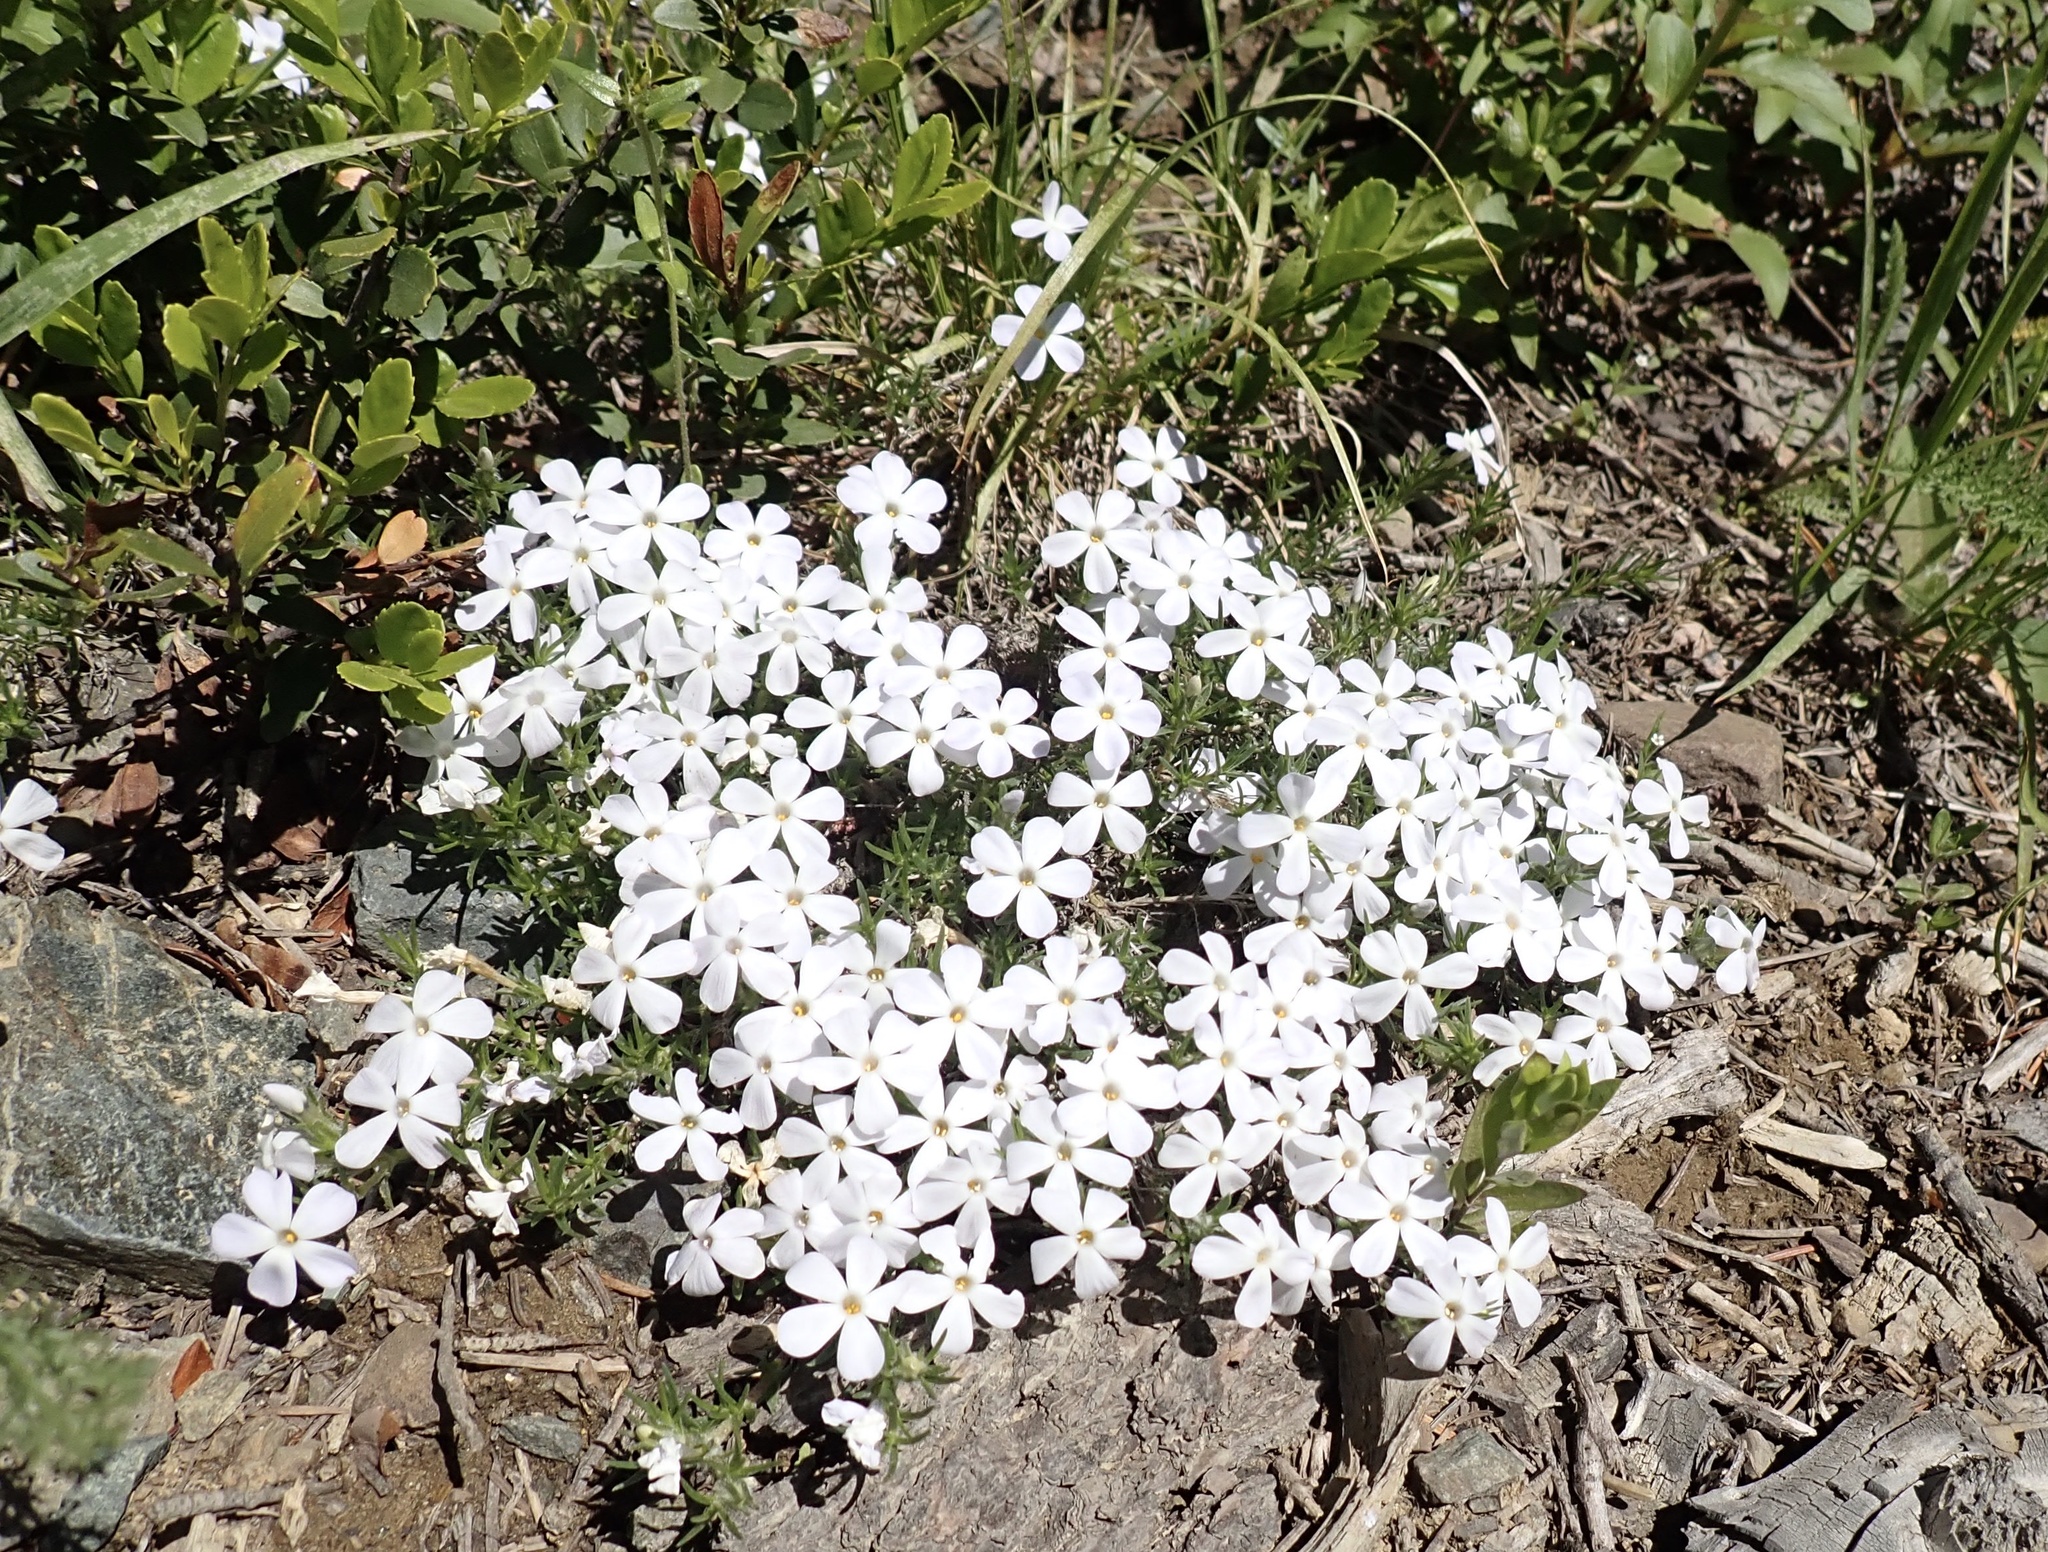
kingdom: Plantae
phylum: Tracheophyta
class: Magnoliopsida
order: Ericales
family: Polemoniaceae
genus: Phlox
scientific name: Phlox diffusa
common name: Mat phlox
